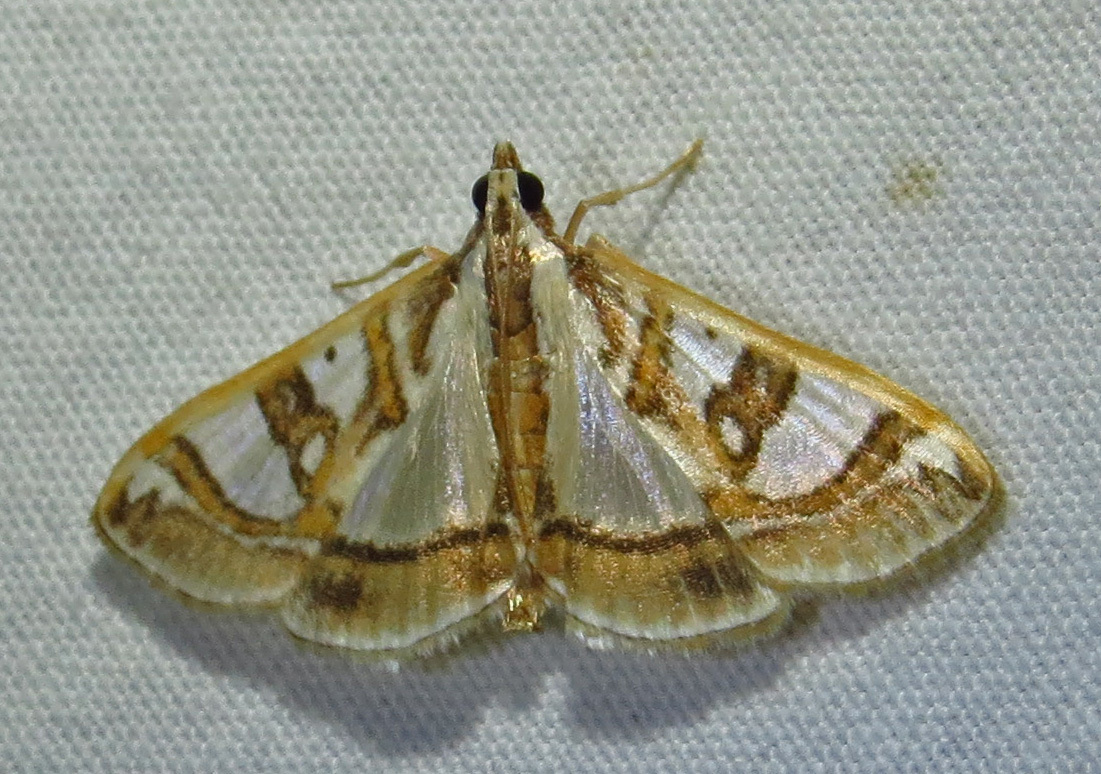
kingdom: Animalia
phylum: Arthropoda
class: Insecta
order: Lepidoptera
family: Crambidae
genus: Glyphodes
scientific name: Glyphodes pyloalis
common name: Lesser mulberry snout moth
